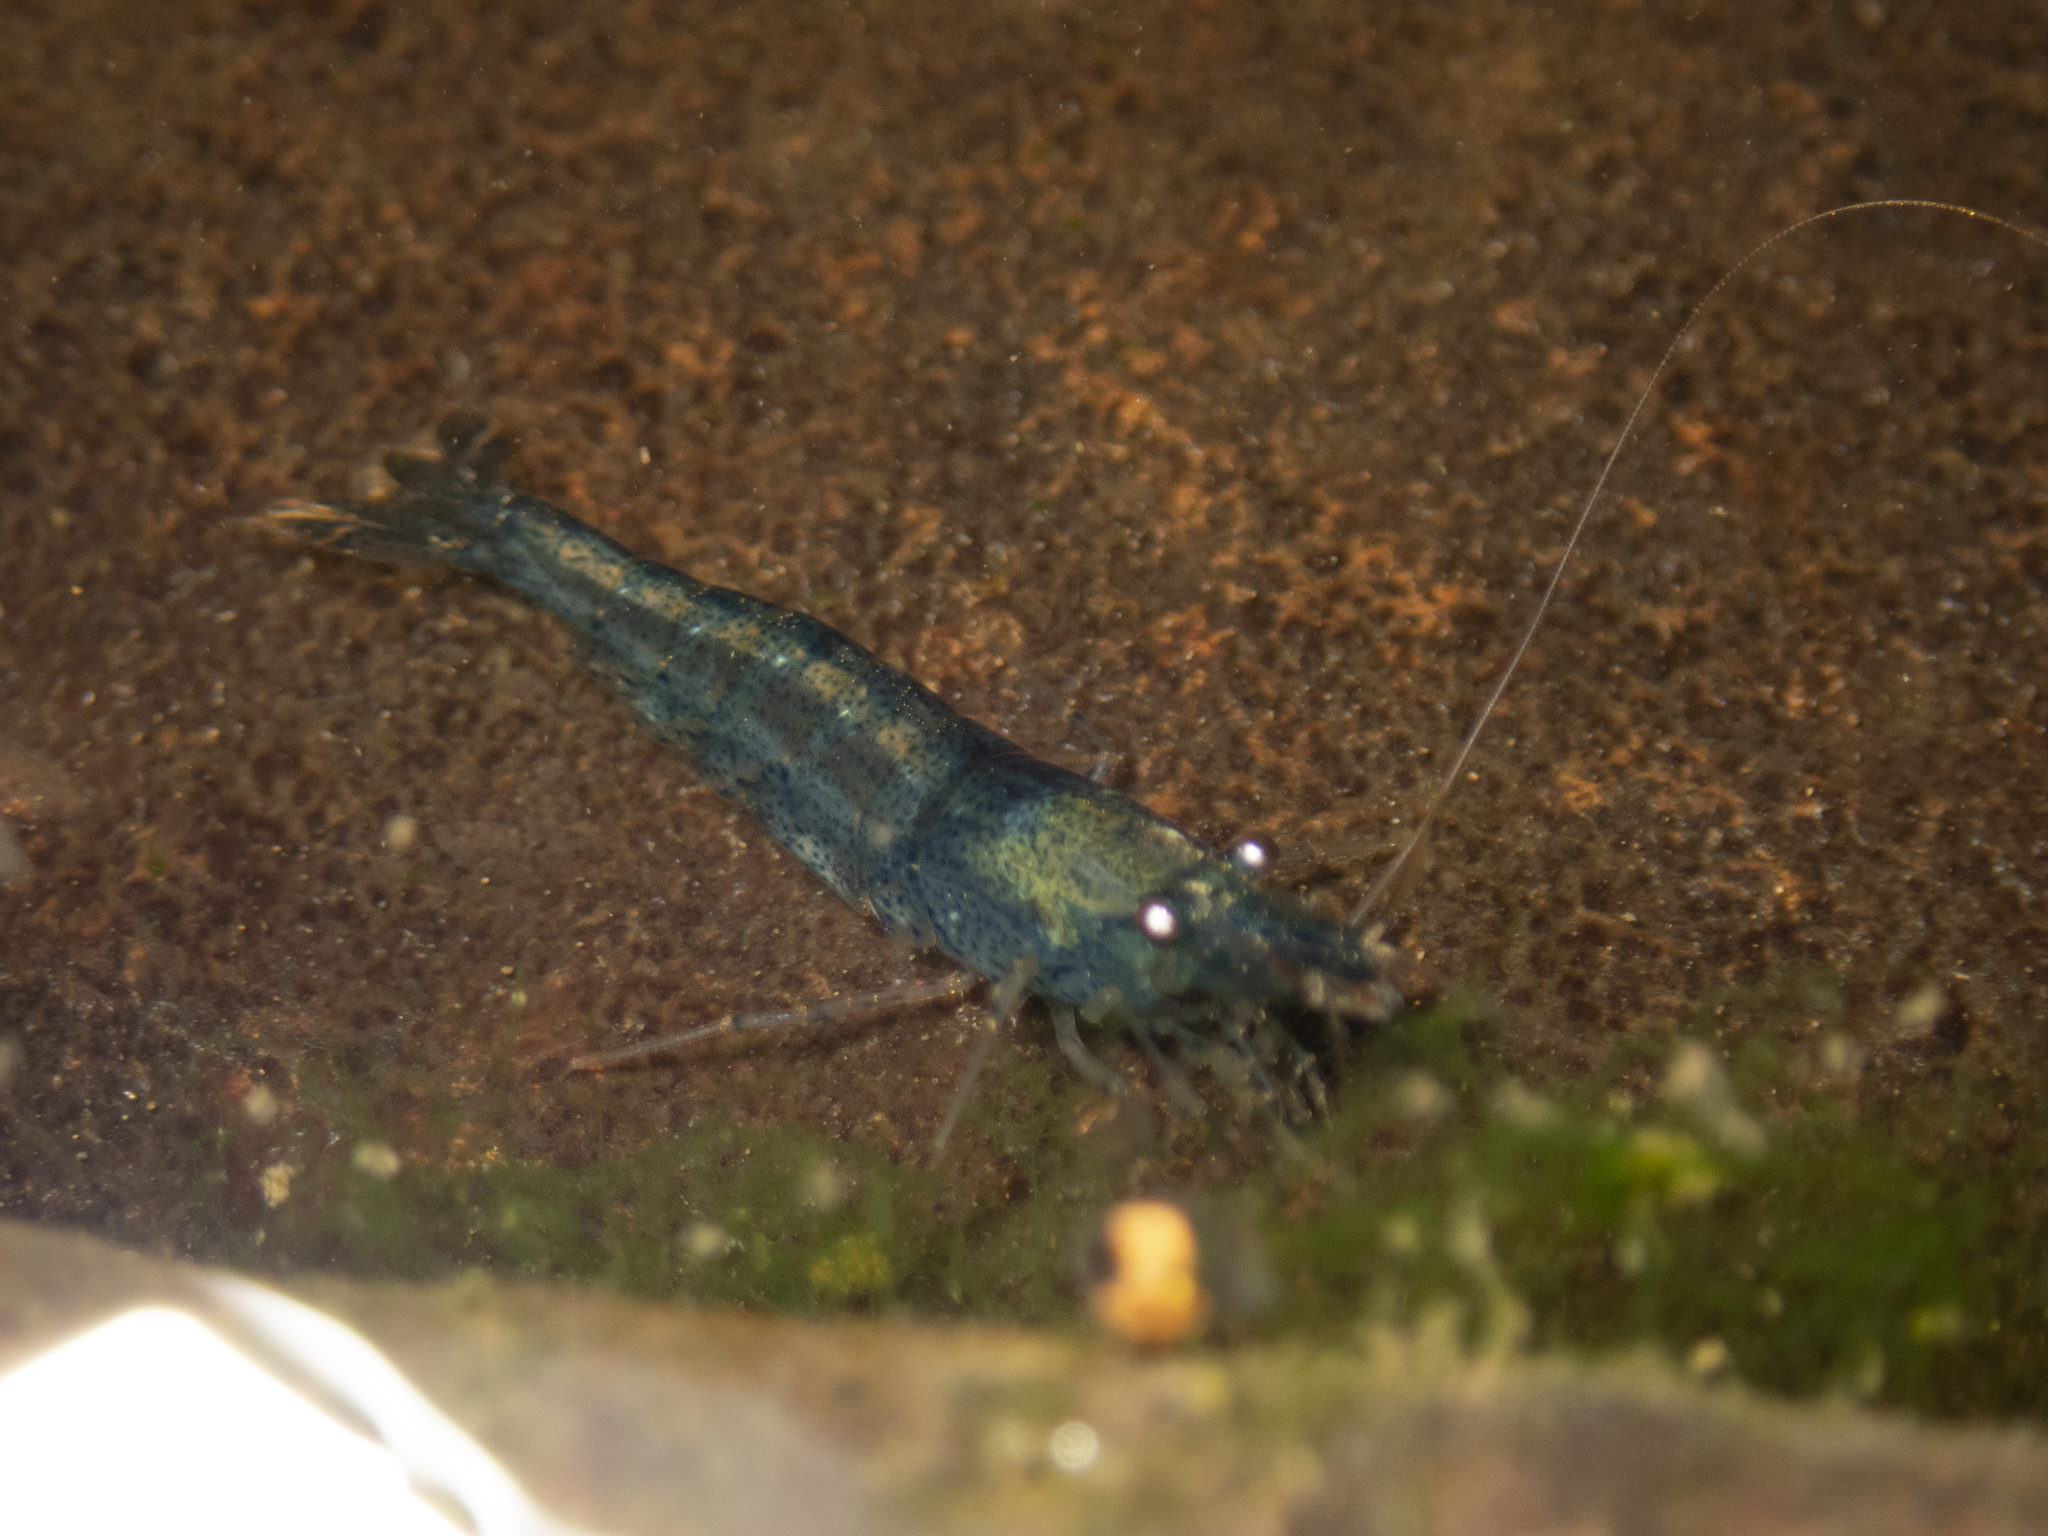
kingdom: Animalia
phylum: Arthropoda
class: Malacostraca
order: Decapoda
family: Atyidae
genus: Caridina
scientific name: Caridina cantonensis
